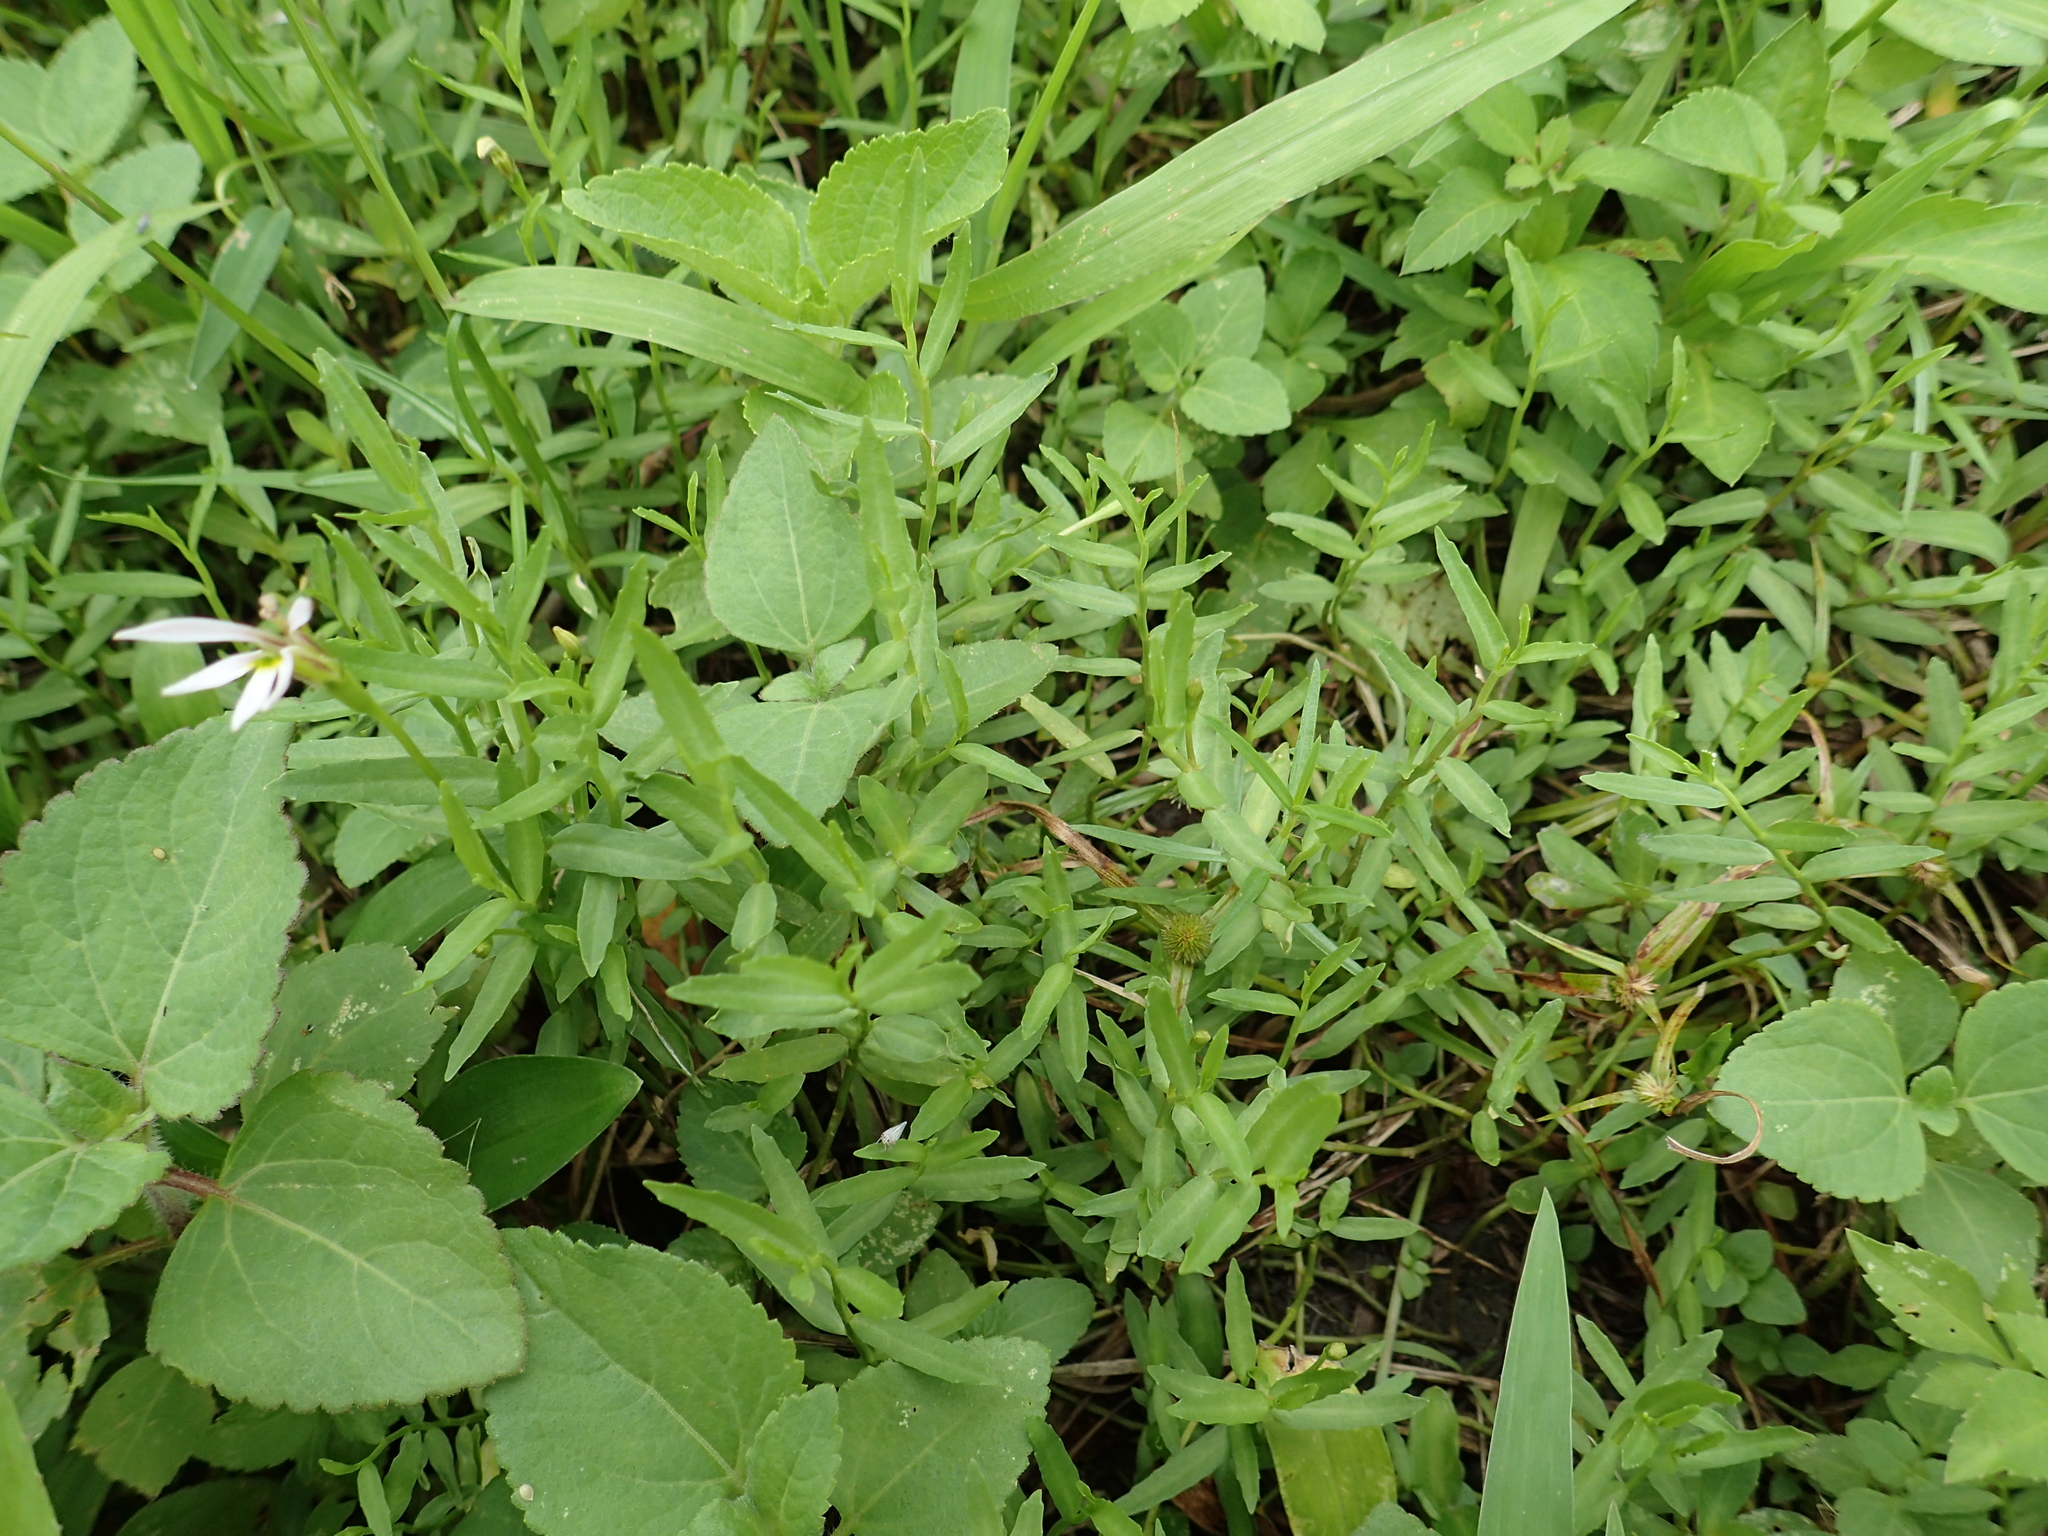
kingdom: Plantae
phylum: Tracheophyta
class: Magnoliopsida
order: Asterales
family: Campanulaceae
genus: Lobelia
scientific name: Lobelia chinensis
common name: Chinese lobelia
